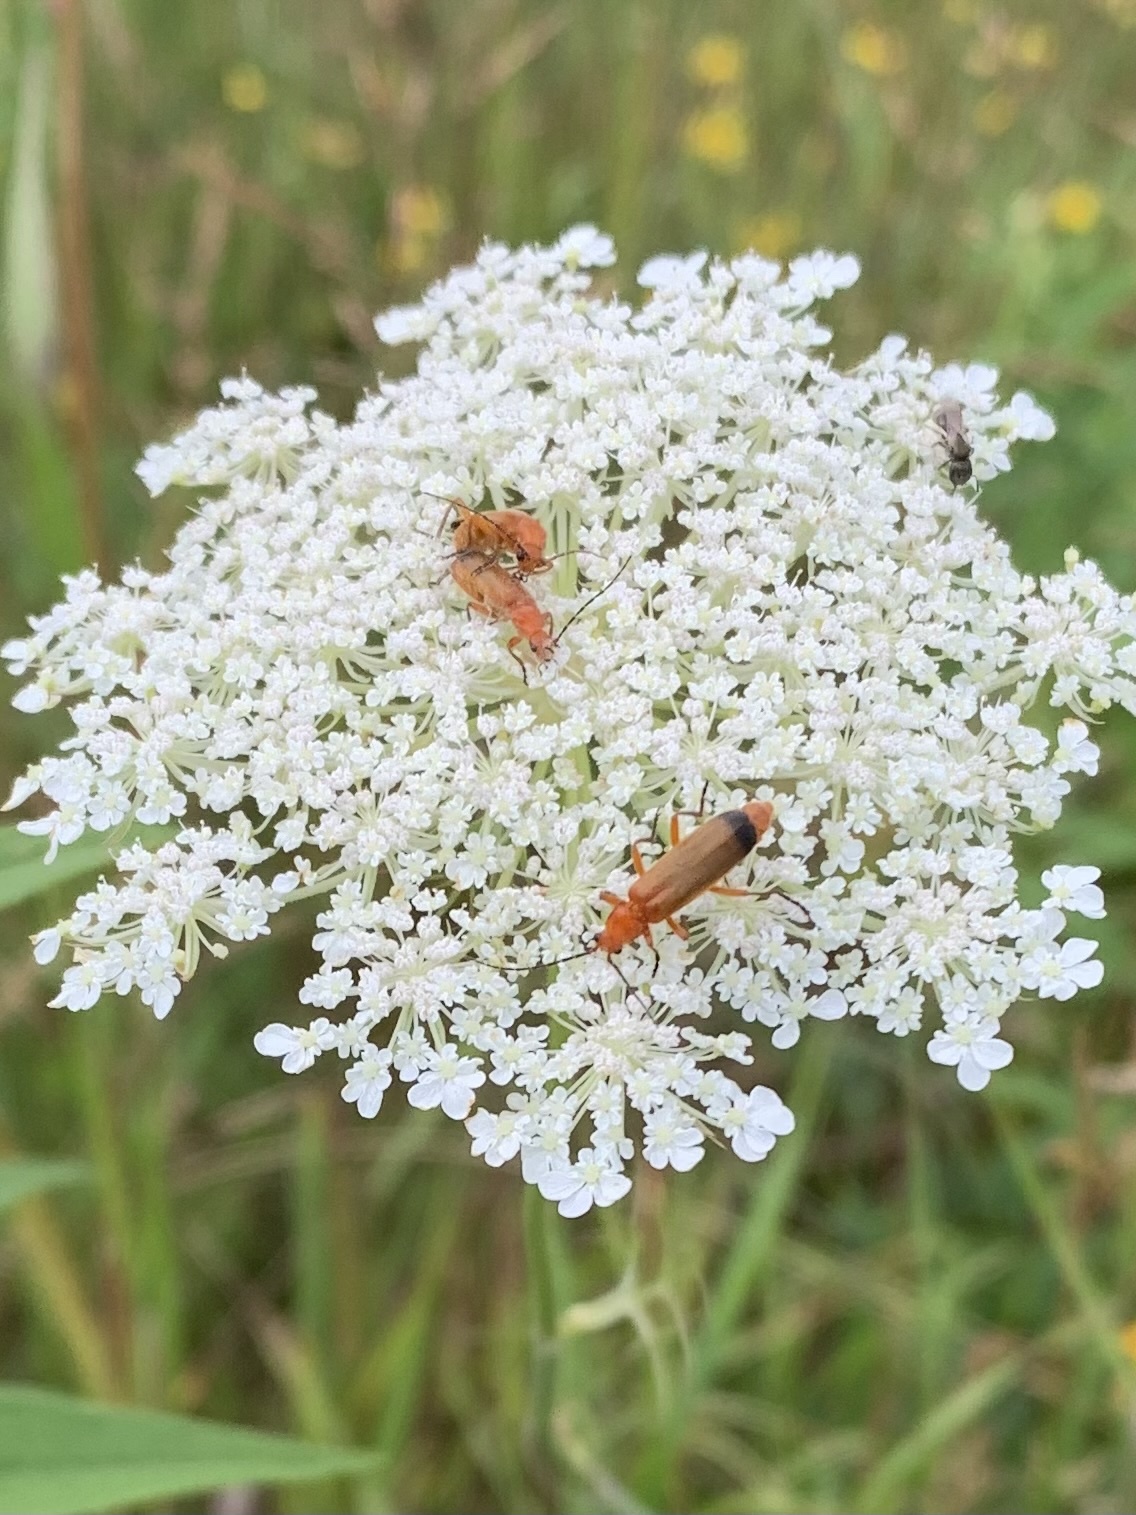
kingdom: Animalia
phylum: Arthropoda
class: Insecta
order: Coleoptera
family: Cantharidae
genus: Rhagonycha
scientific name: Rhagonycha fulva
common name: Common red soldier beetle
